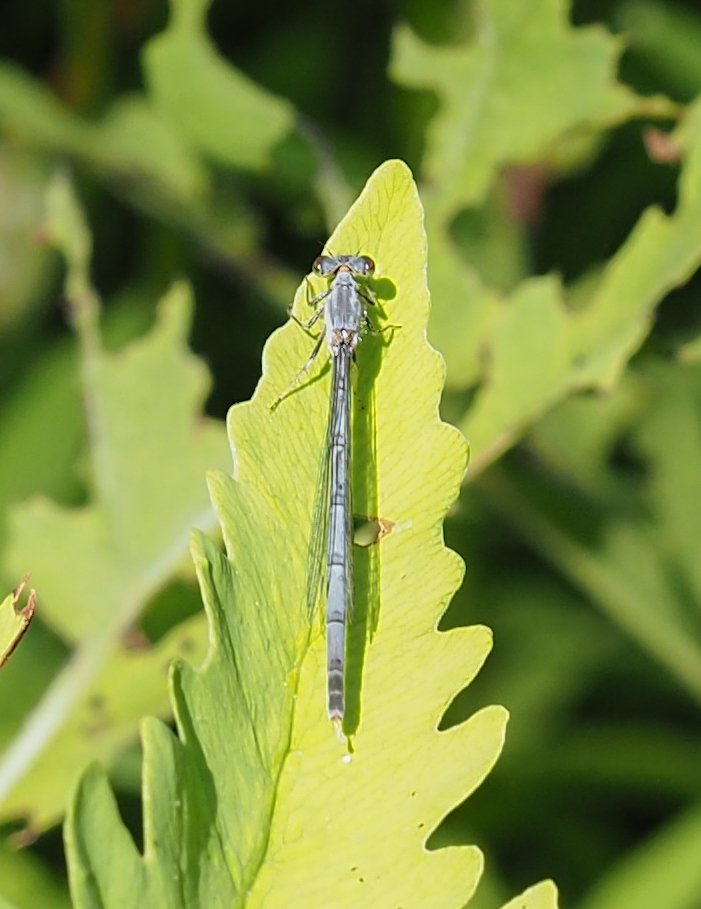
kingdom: Animalia
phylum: Arthropoda
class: Insecta
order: Odonata
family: Coenagrionidae
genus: Ischnura
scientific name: Ischnura posita
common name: Fragile forktail
